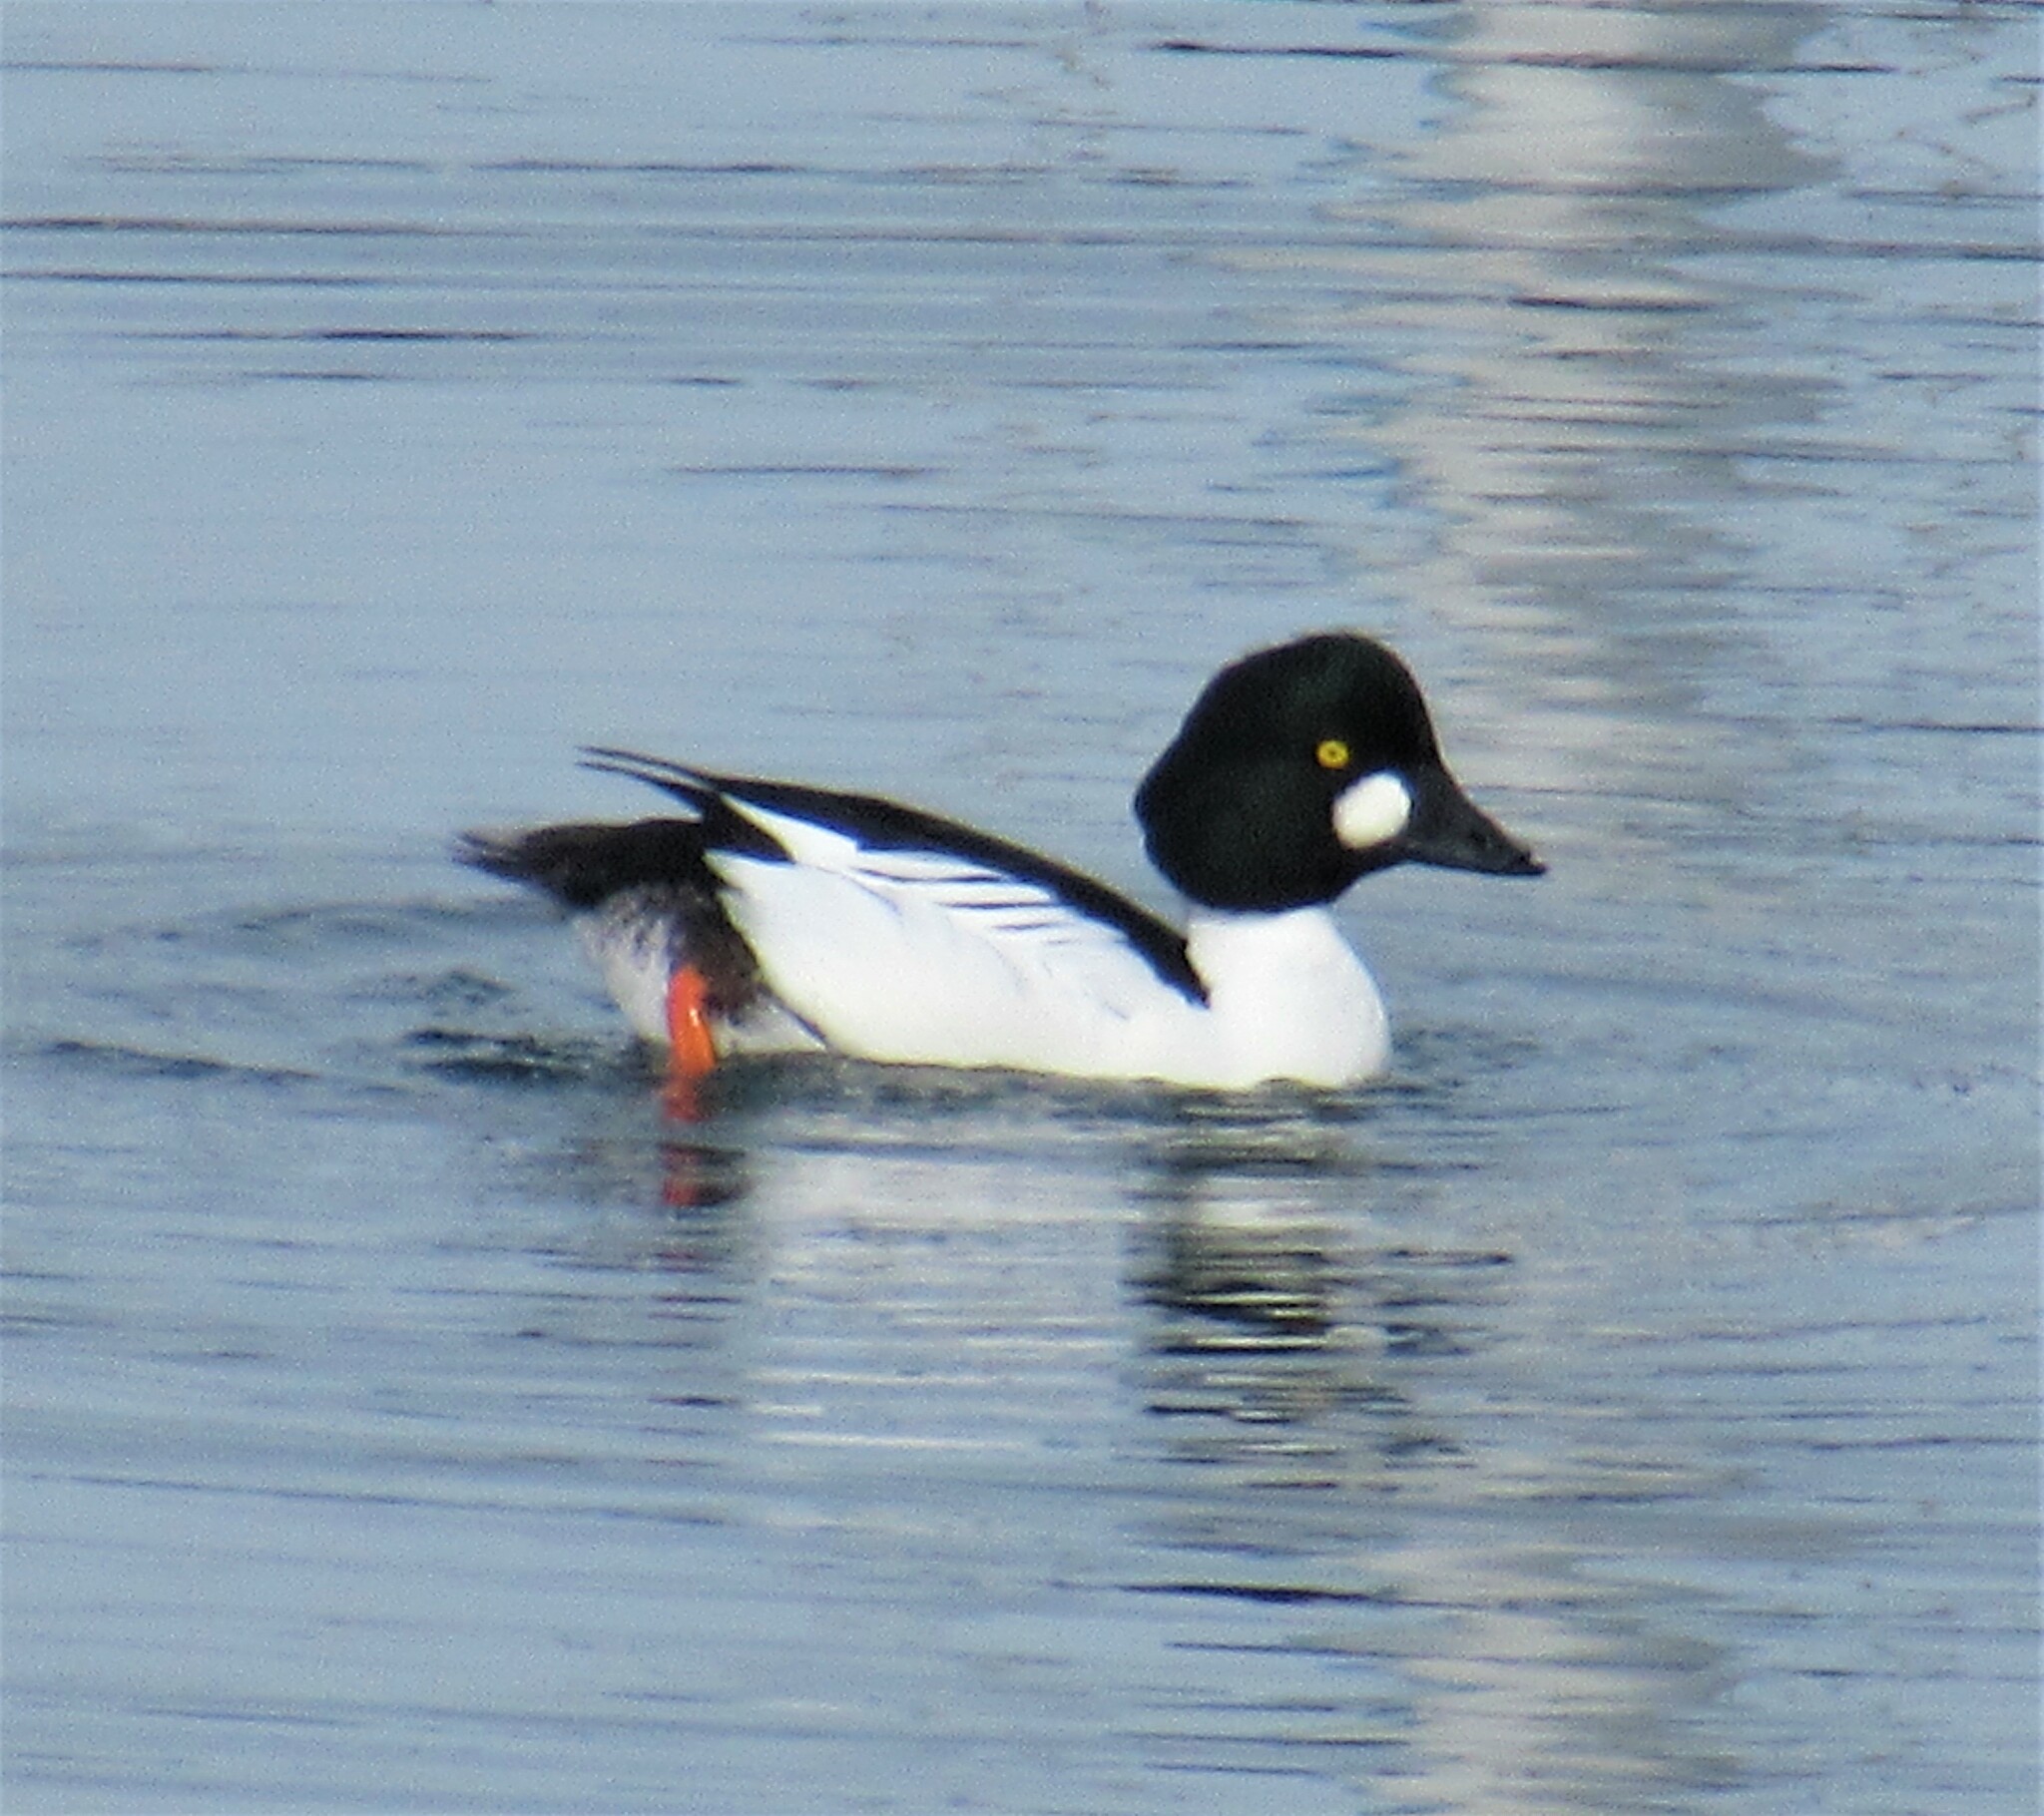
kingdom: Animalia
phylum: Chordata
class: Aves
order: Anseriformes
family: Anatidae
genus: Bucephala
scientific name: Bucephala clangula
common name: Common goldeneye
